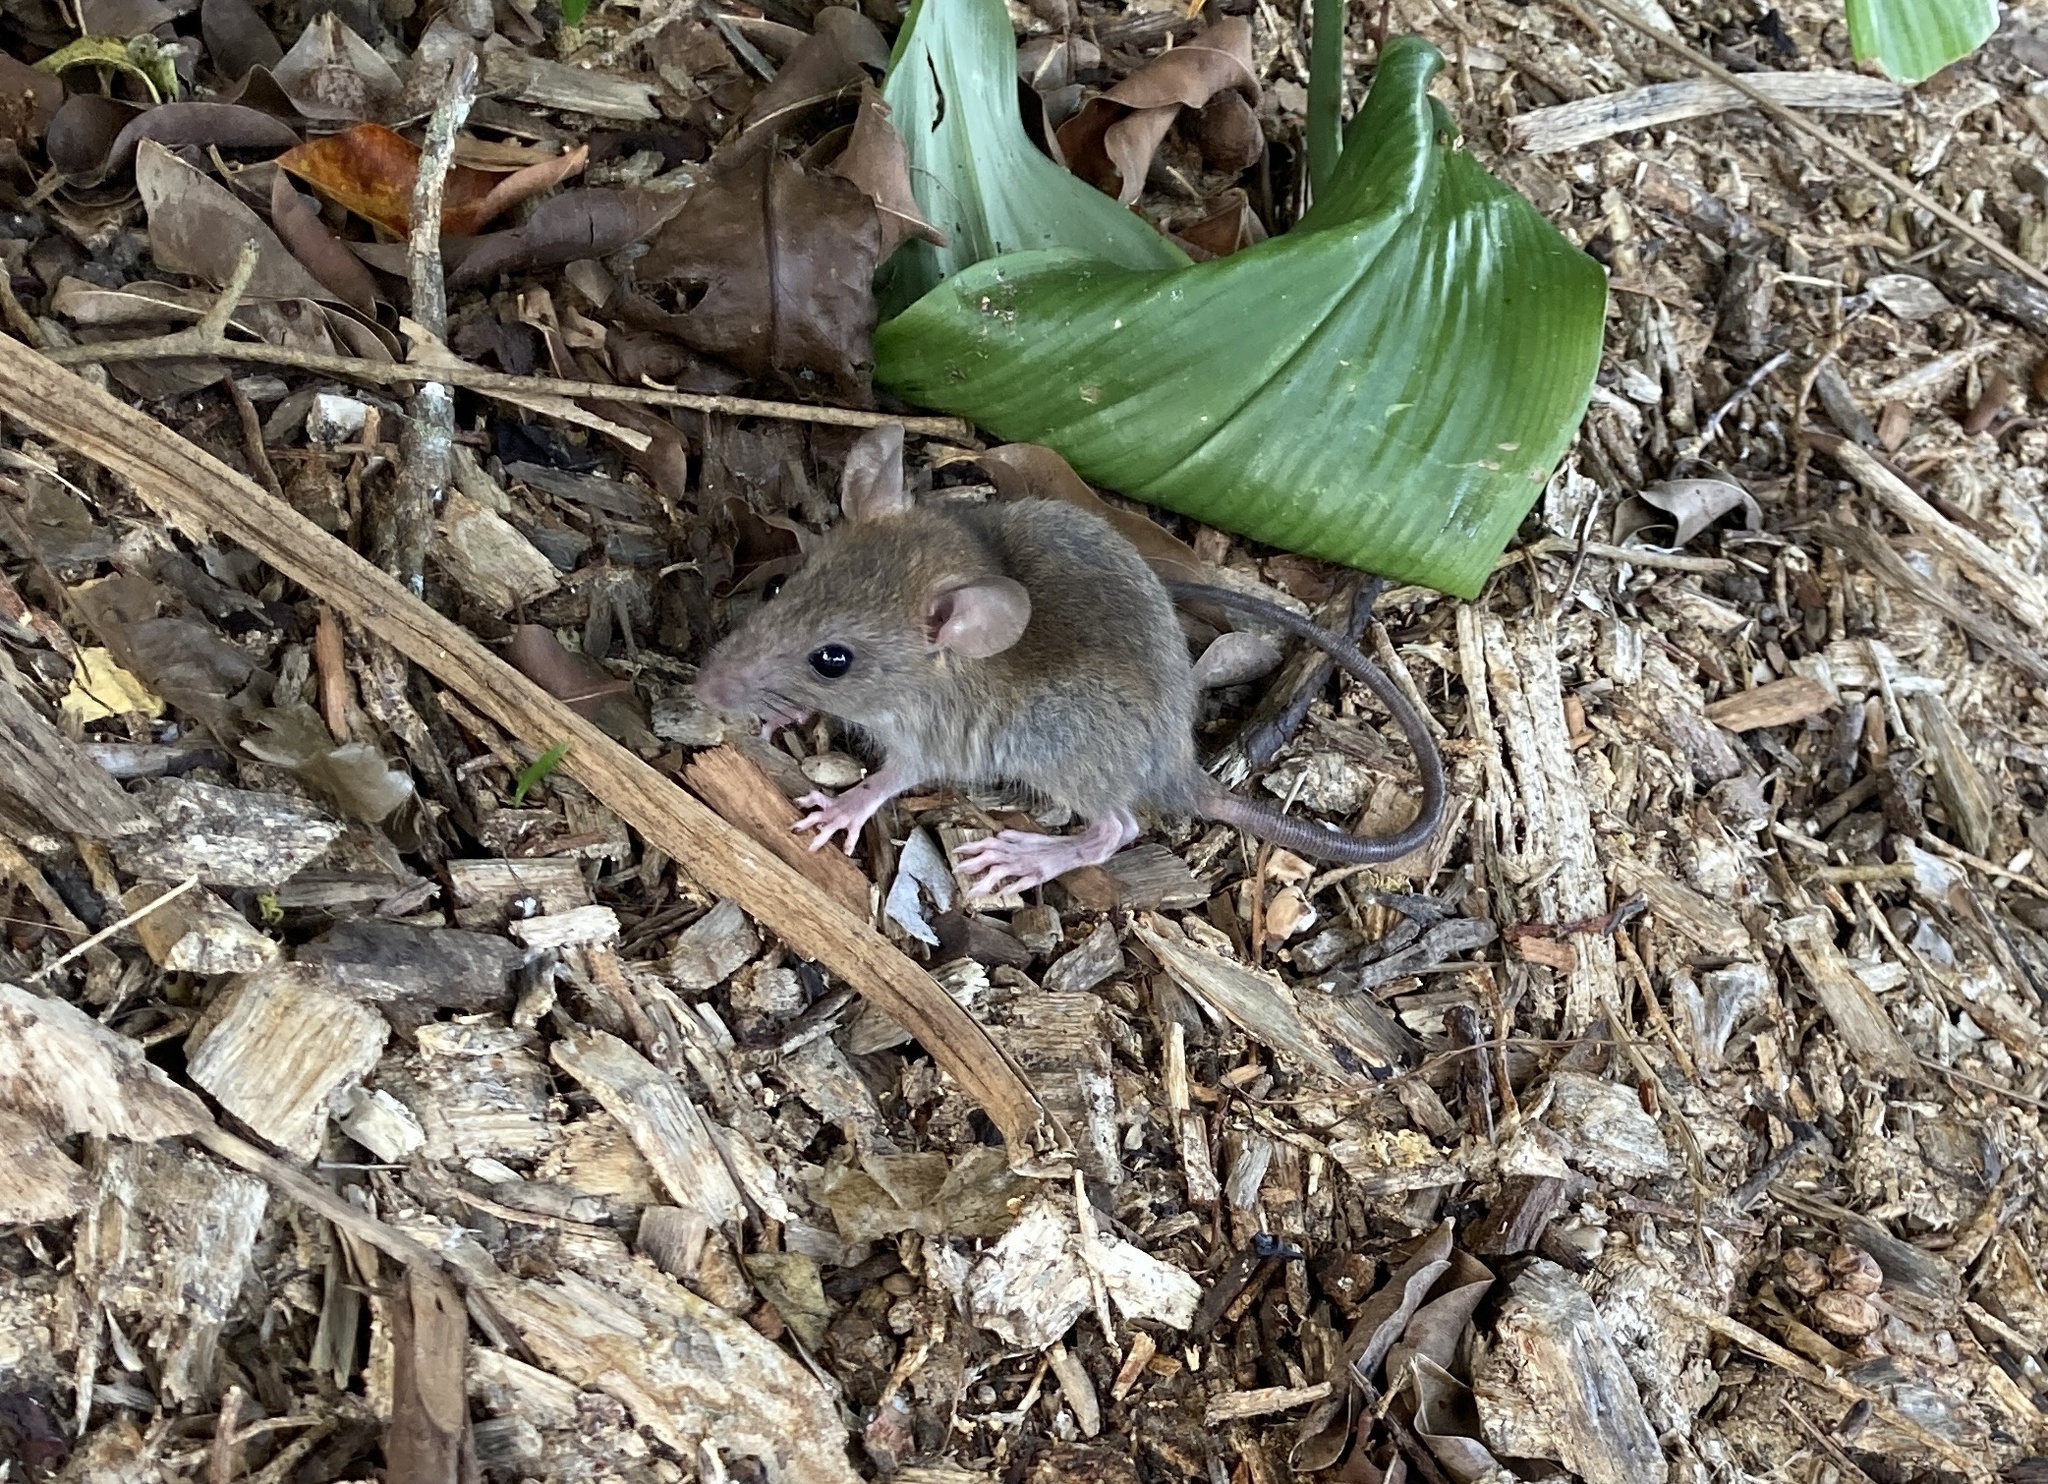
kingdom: Animalia
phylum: Chordata
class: Mammalia
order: Rodentia
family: Muridae
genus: Mus
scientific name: Mus musculus
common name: House mouse
